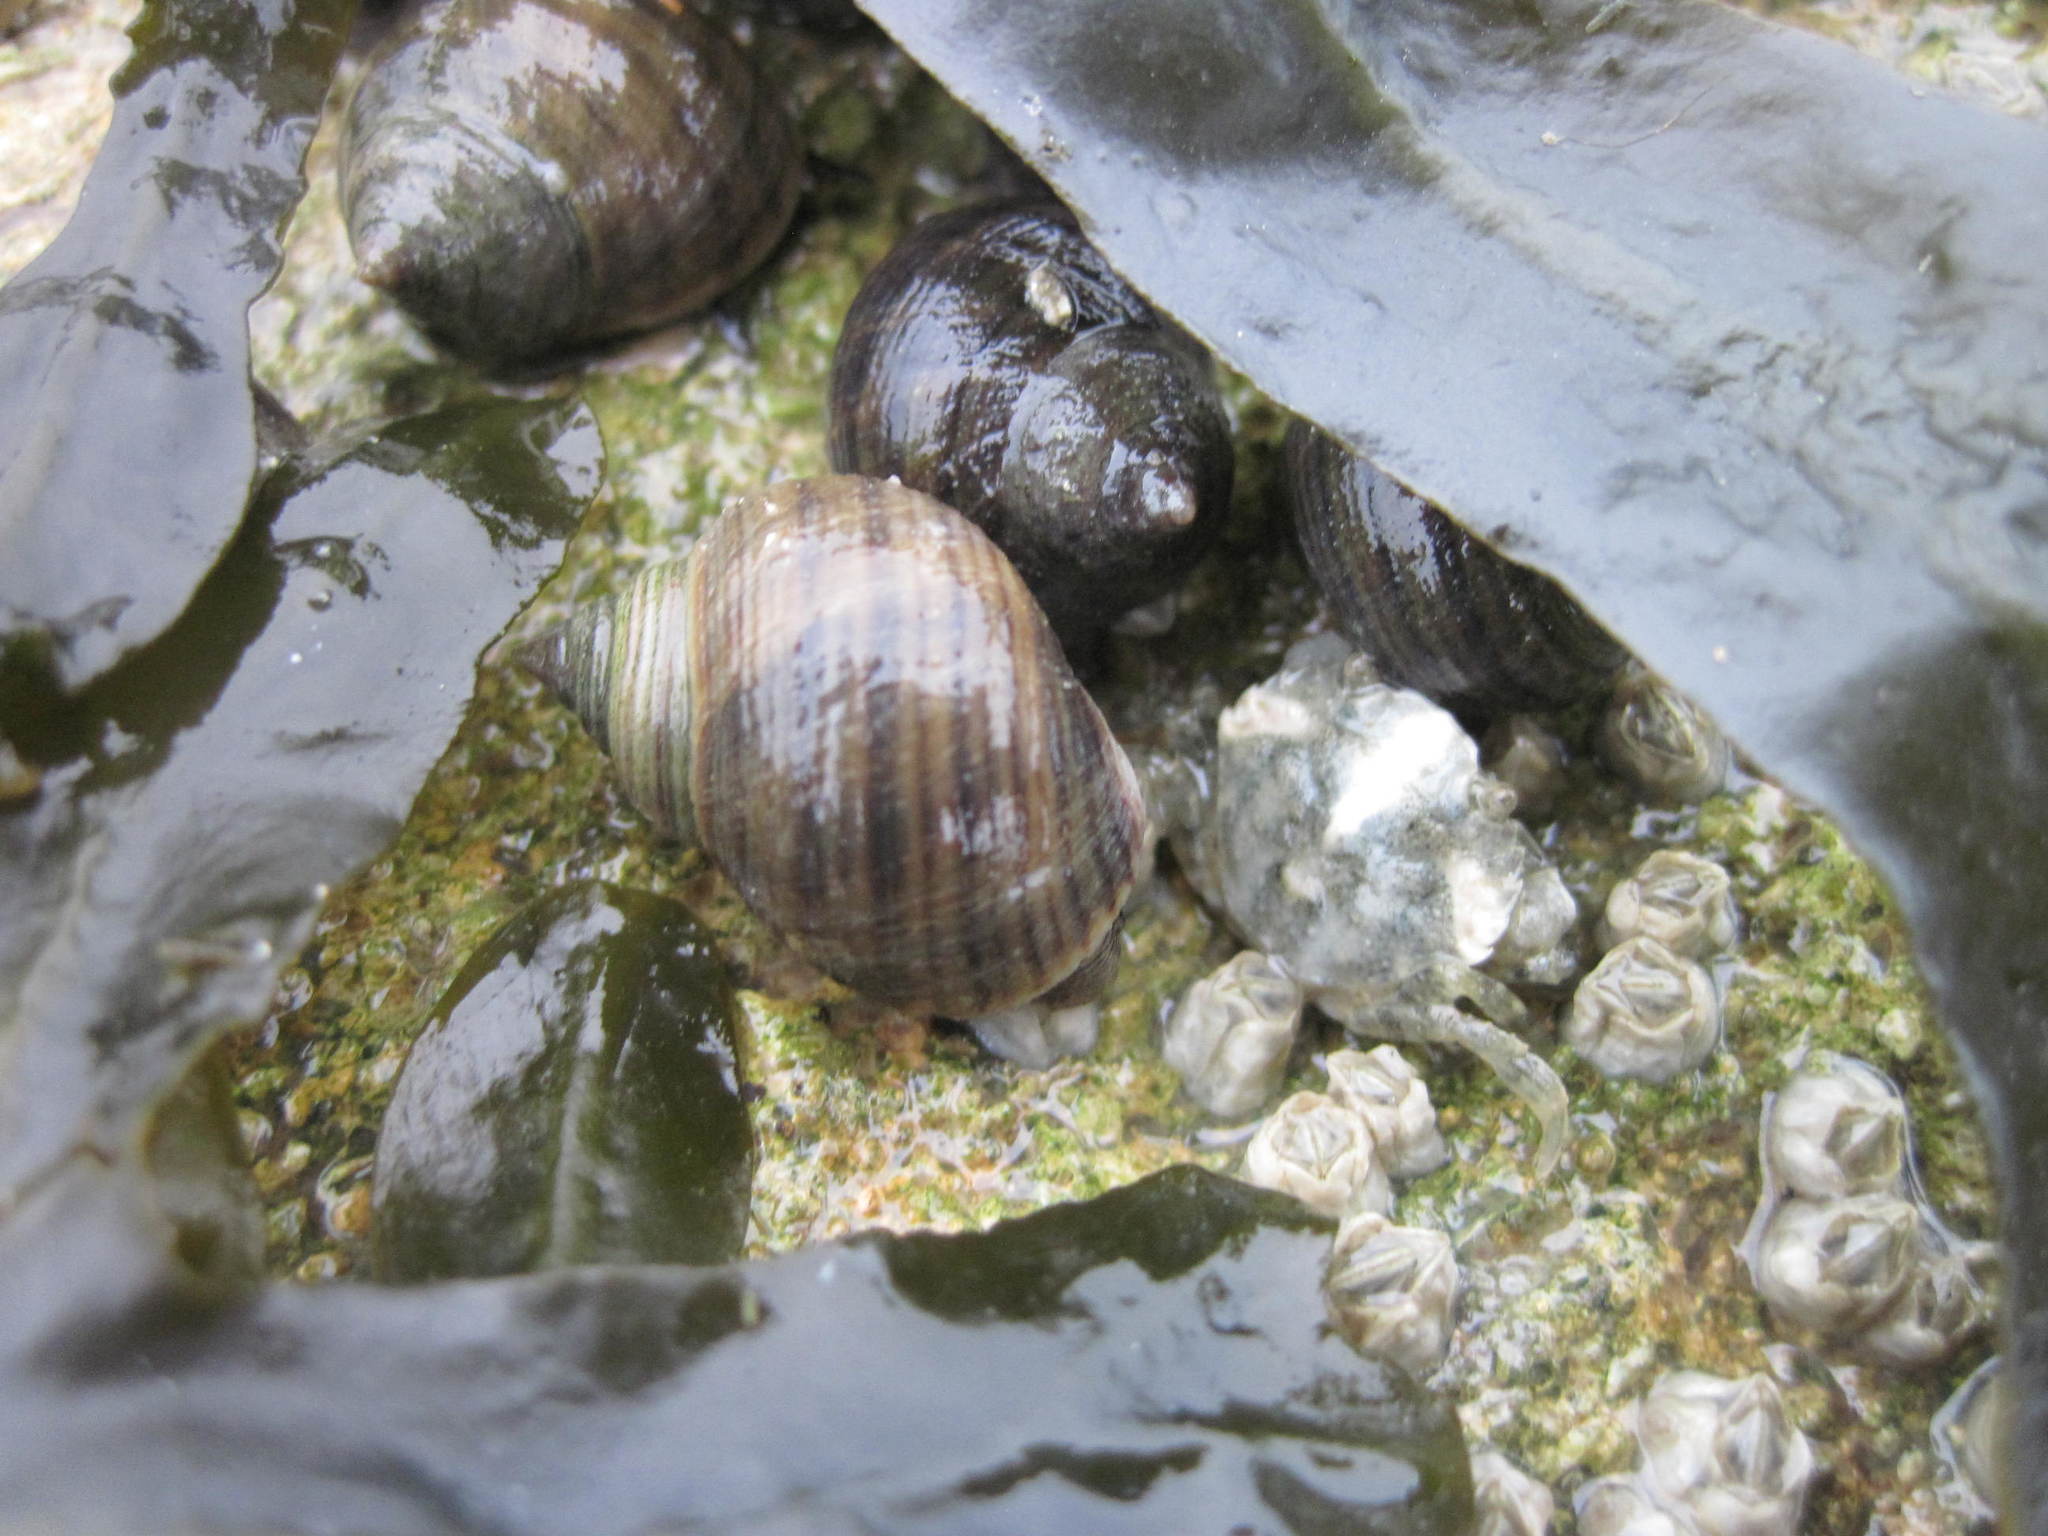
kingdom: Animalia
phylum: Mollusca
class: Gastropoda
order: Littorinimorpha
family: Littorinidae
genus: Littorina
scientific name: Littorina littorea
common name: Common periwinkle
